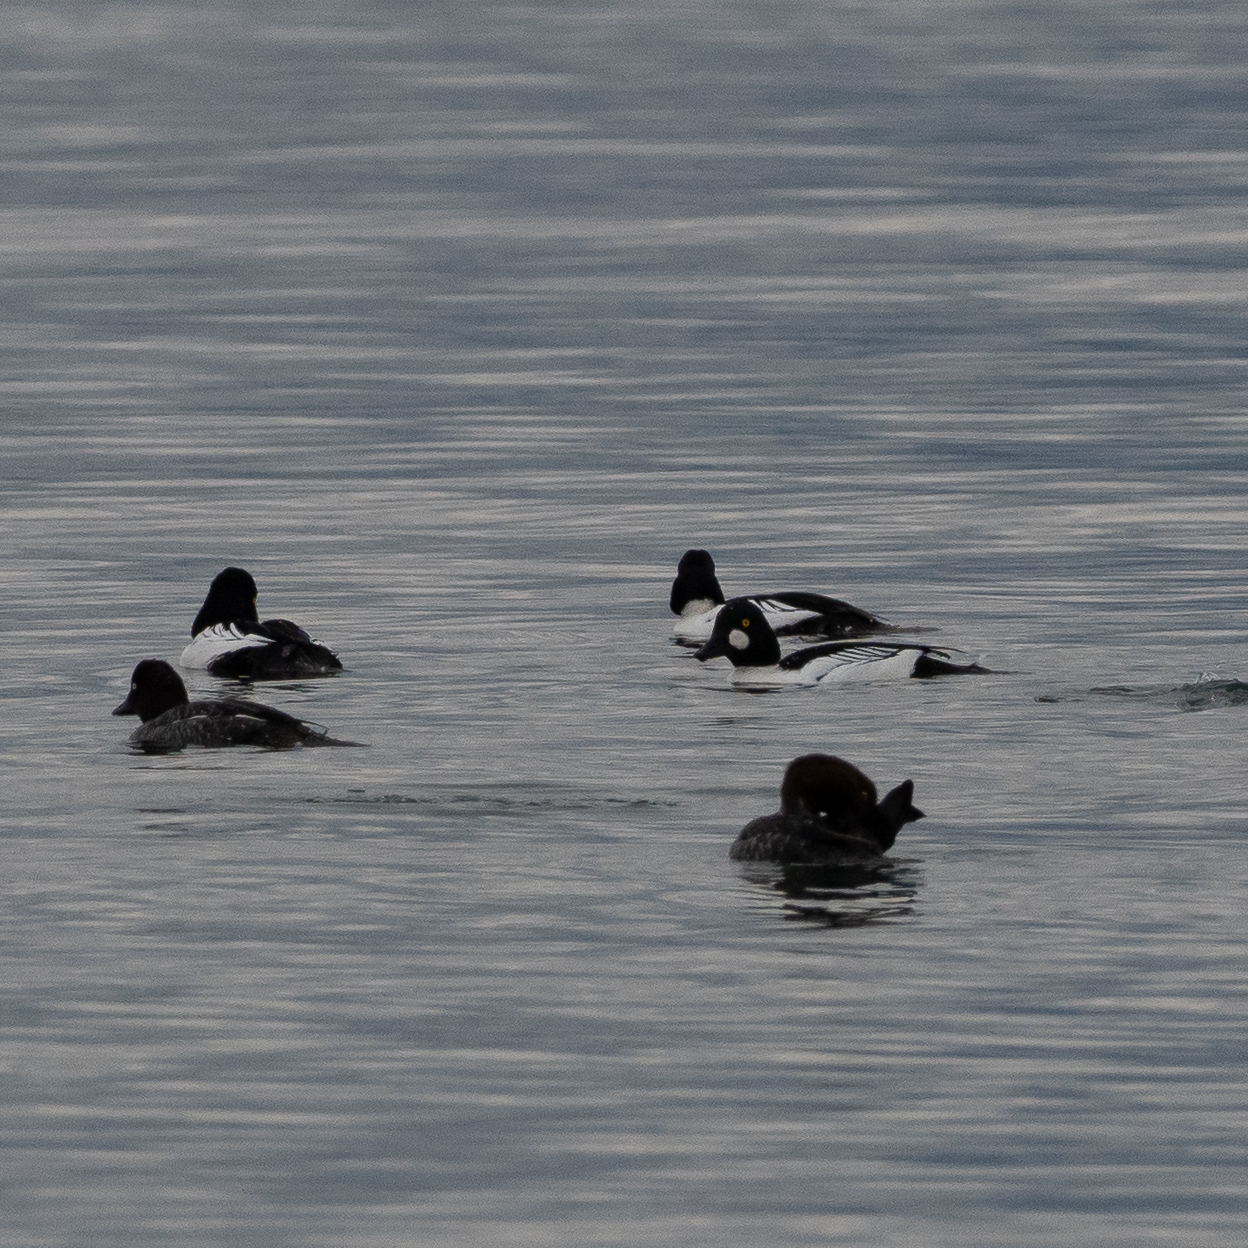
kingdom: Animalia
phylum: Chordata
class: Aves
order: Anseriformes
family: Anatidae
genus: Bucephala
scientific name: Bucephala clangula
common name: Common goldeneye
